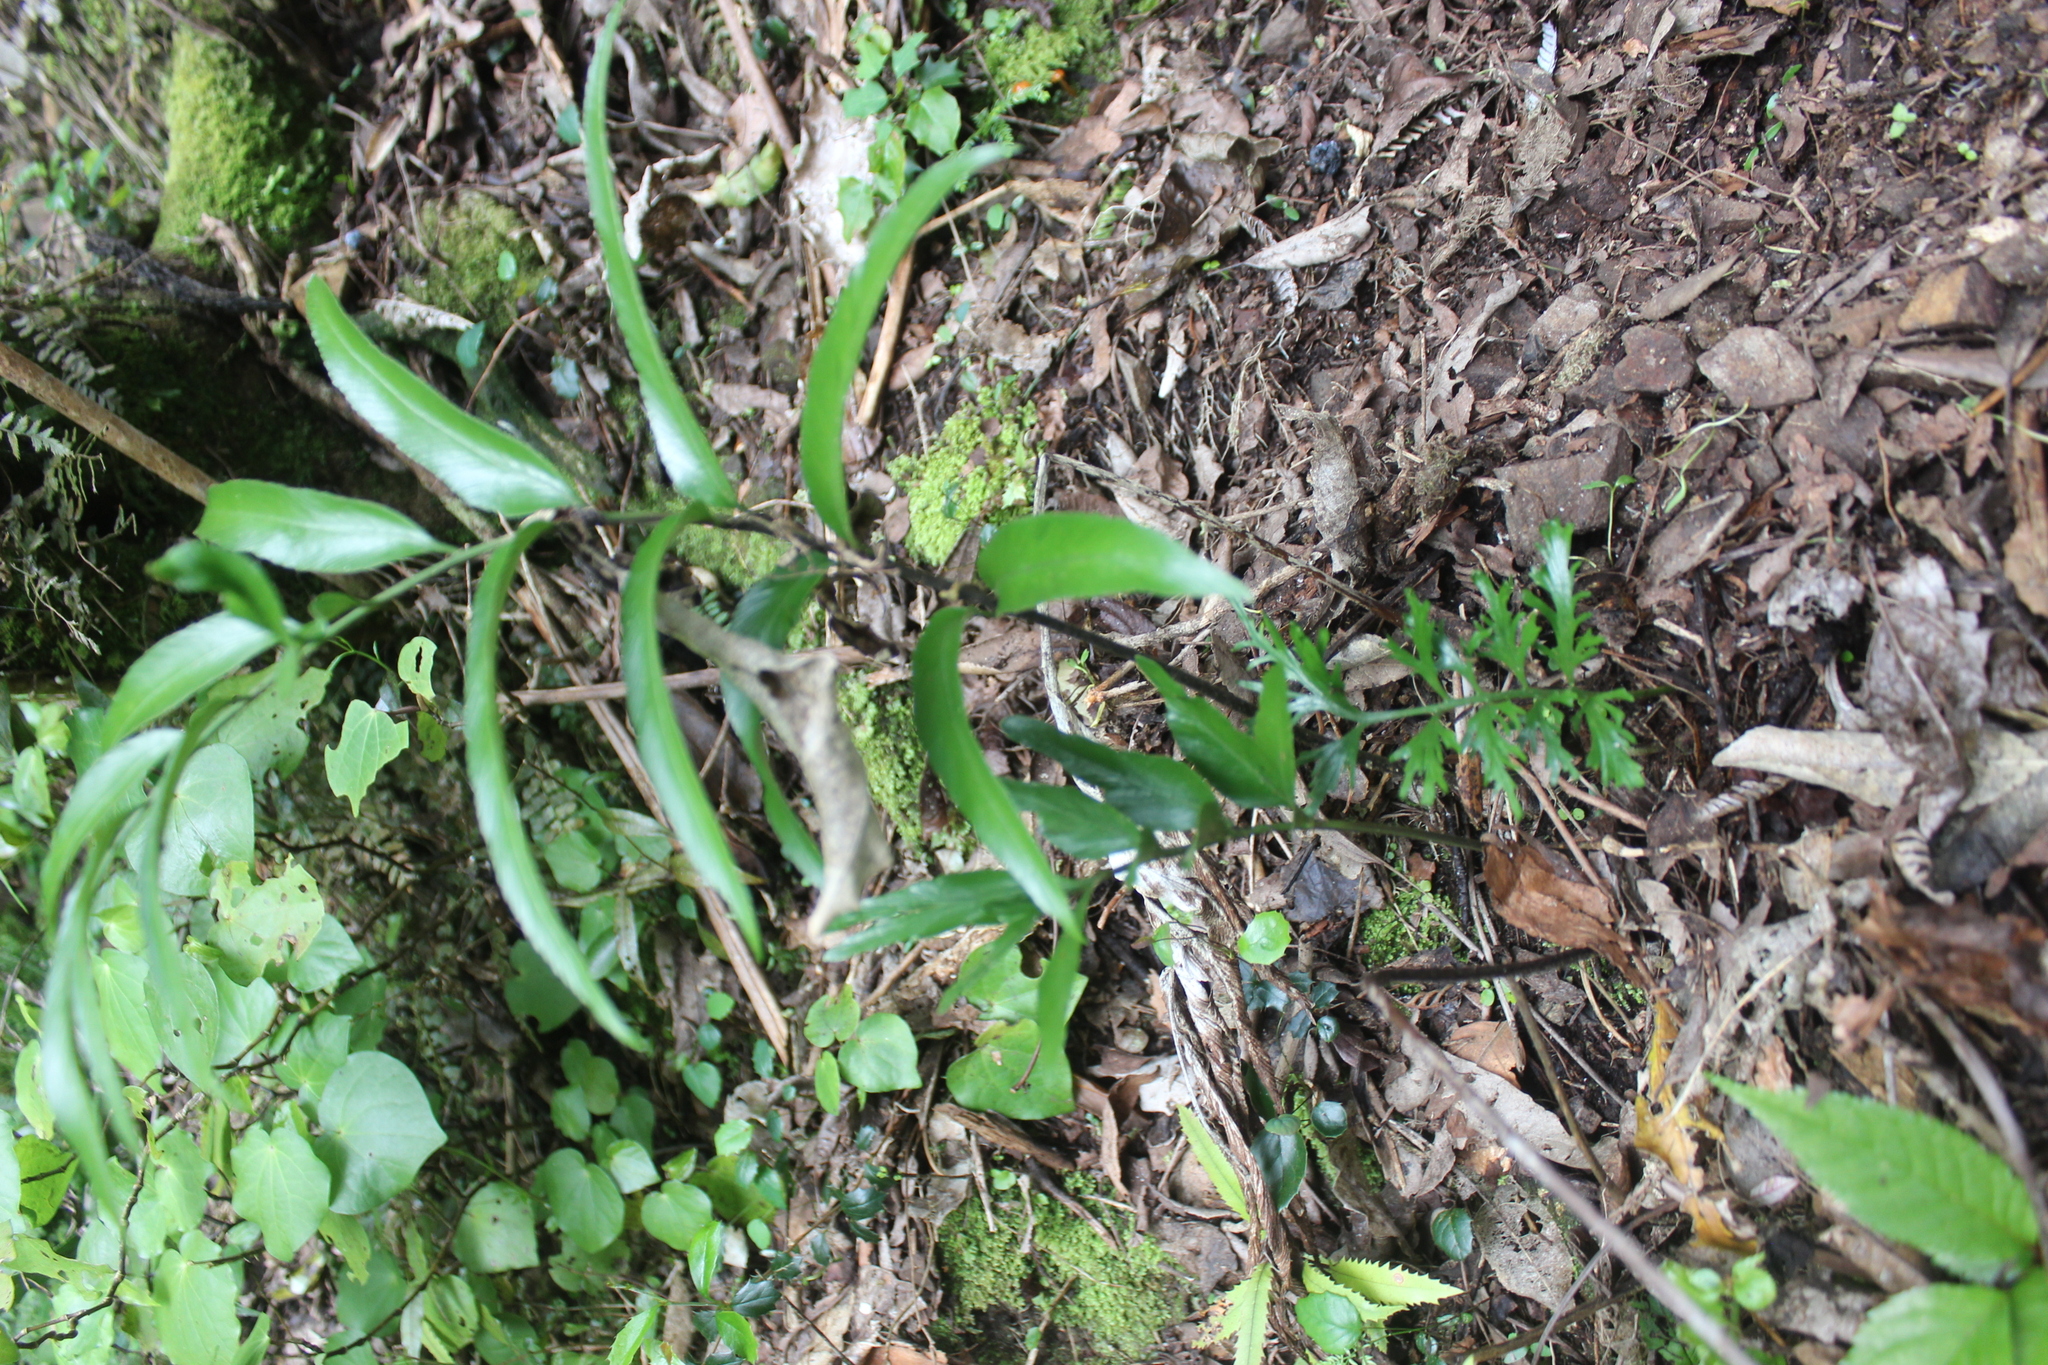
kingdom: Plantae
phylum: Tracheophyta
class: Polypodiopsida
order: Polypodiales
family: Aspleniaceae
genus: Asplenium
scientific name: Asplenium oblongifolium
